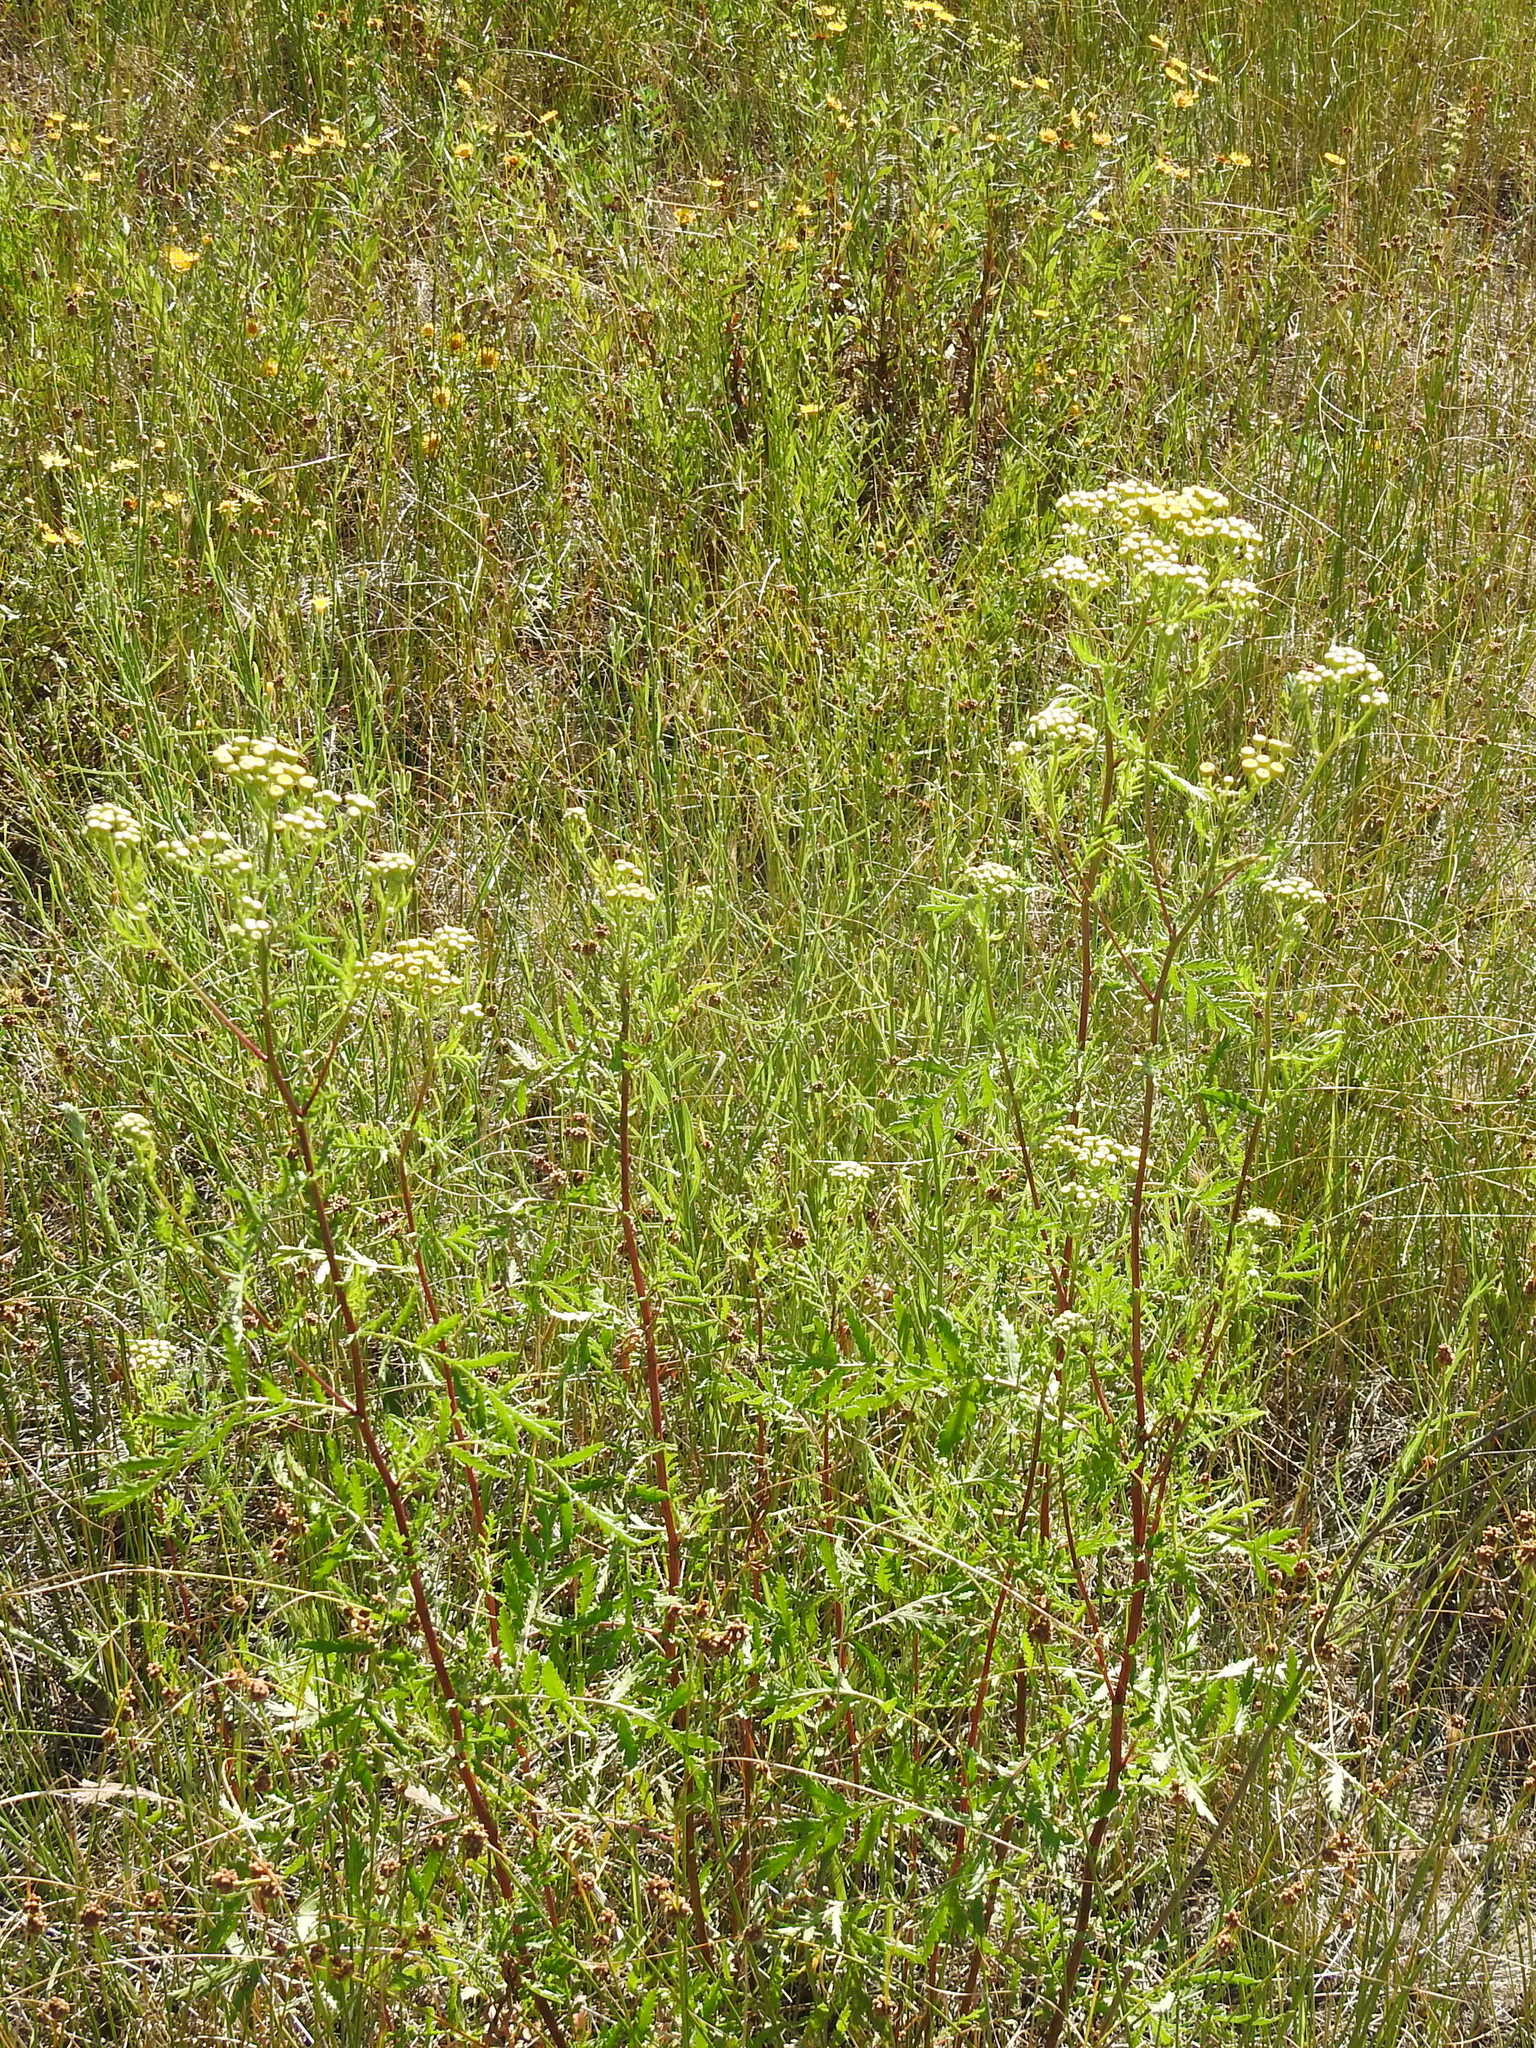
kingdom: Plantae
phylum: Tracheophyta
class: Magnoliopsida
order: Asterales
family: Asteraceae
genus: Tanacetum
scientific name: Tanacetum vulgare
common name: Common tansy
